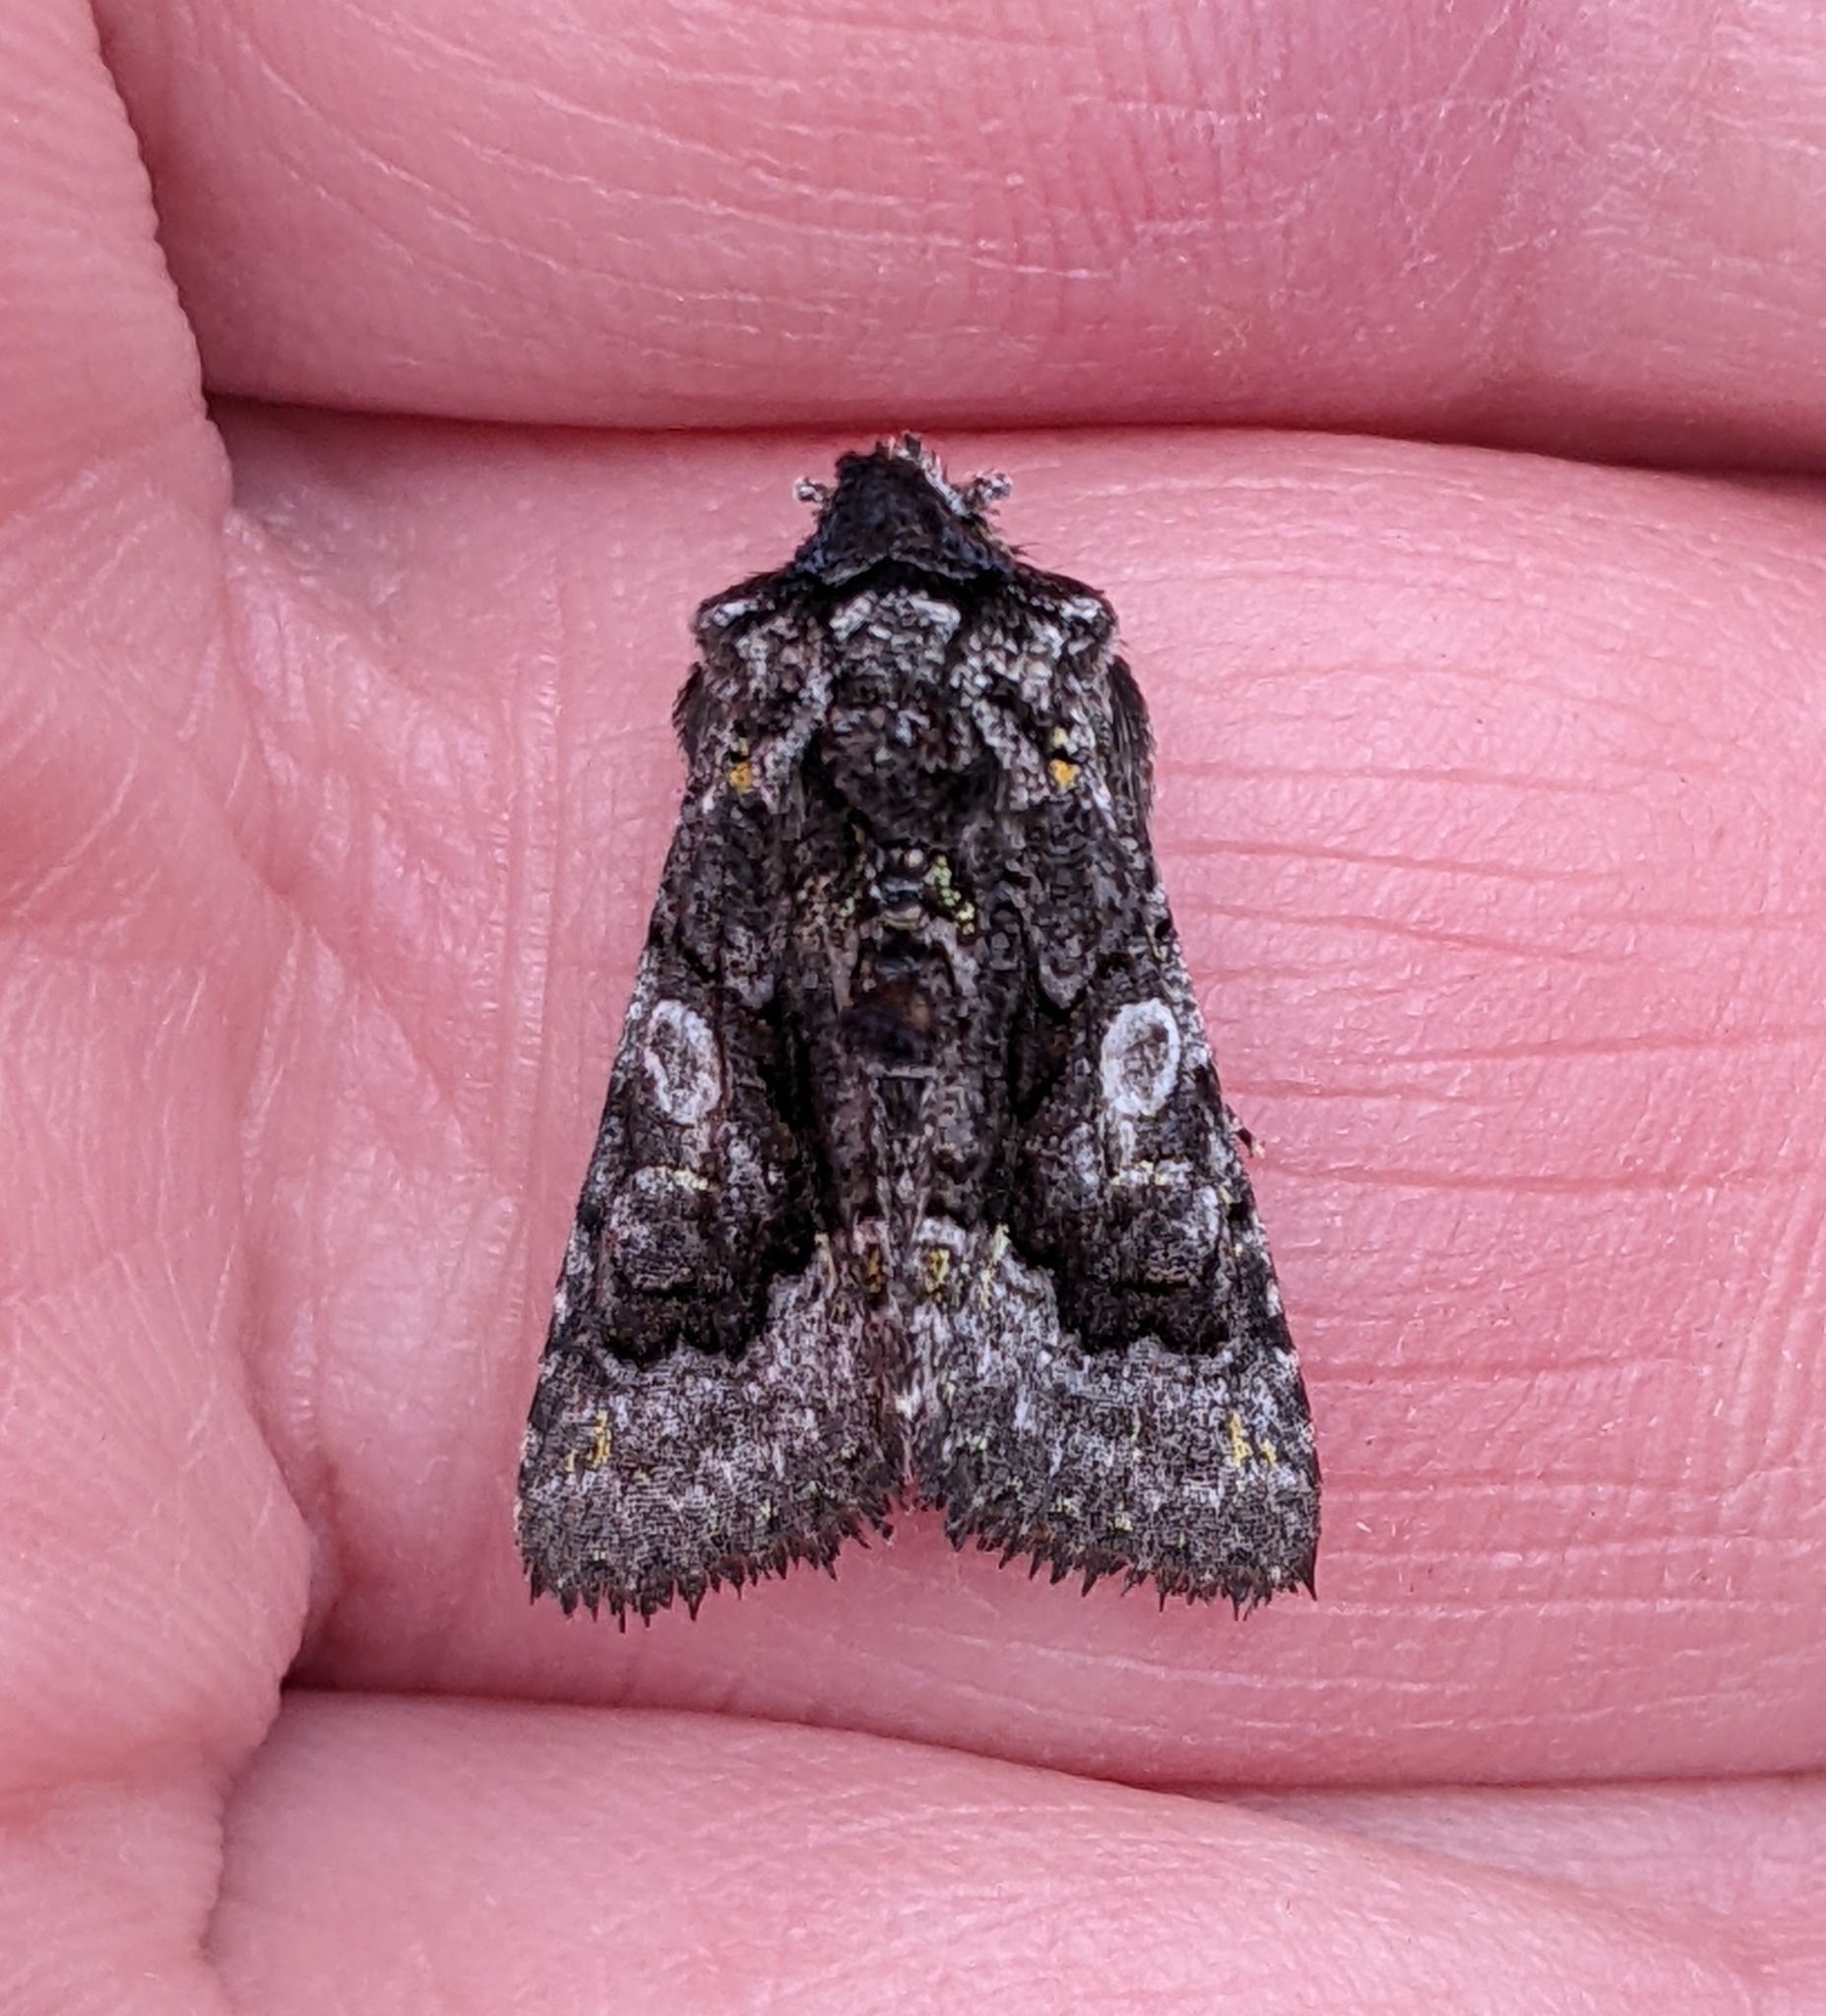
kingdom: Animalia
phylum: Arthropoda
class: Insecta
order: Lepidoptera
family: Noctuidae
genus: Behrensia
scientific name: Behrensia conchiformis
